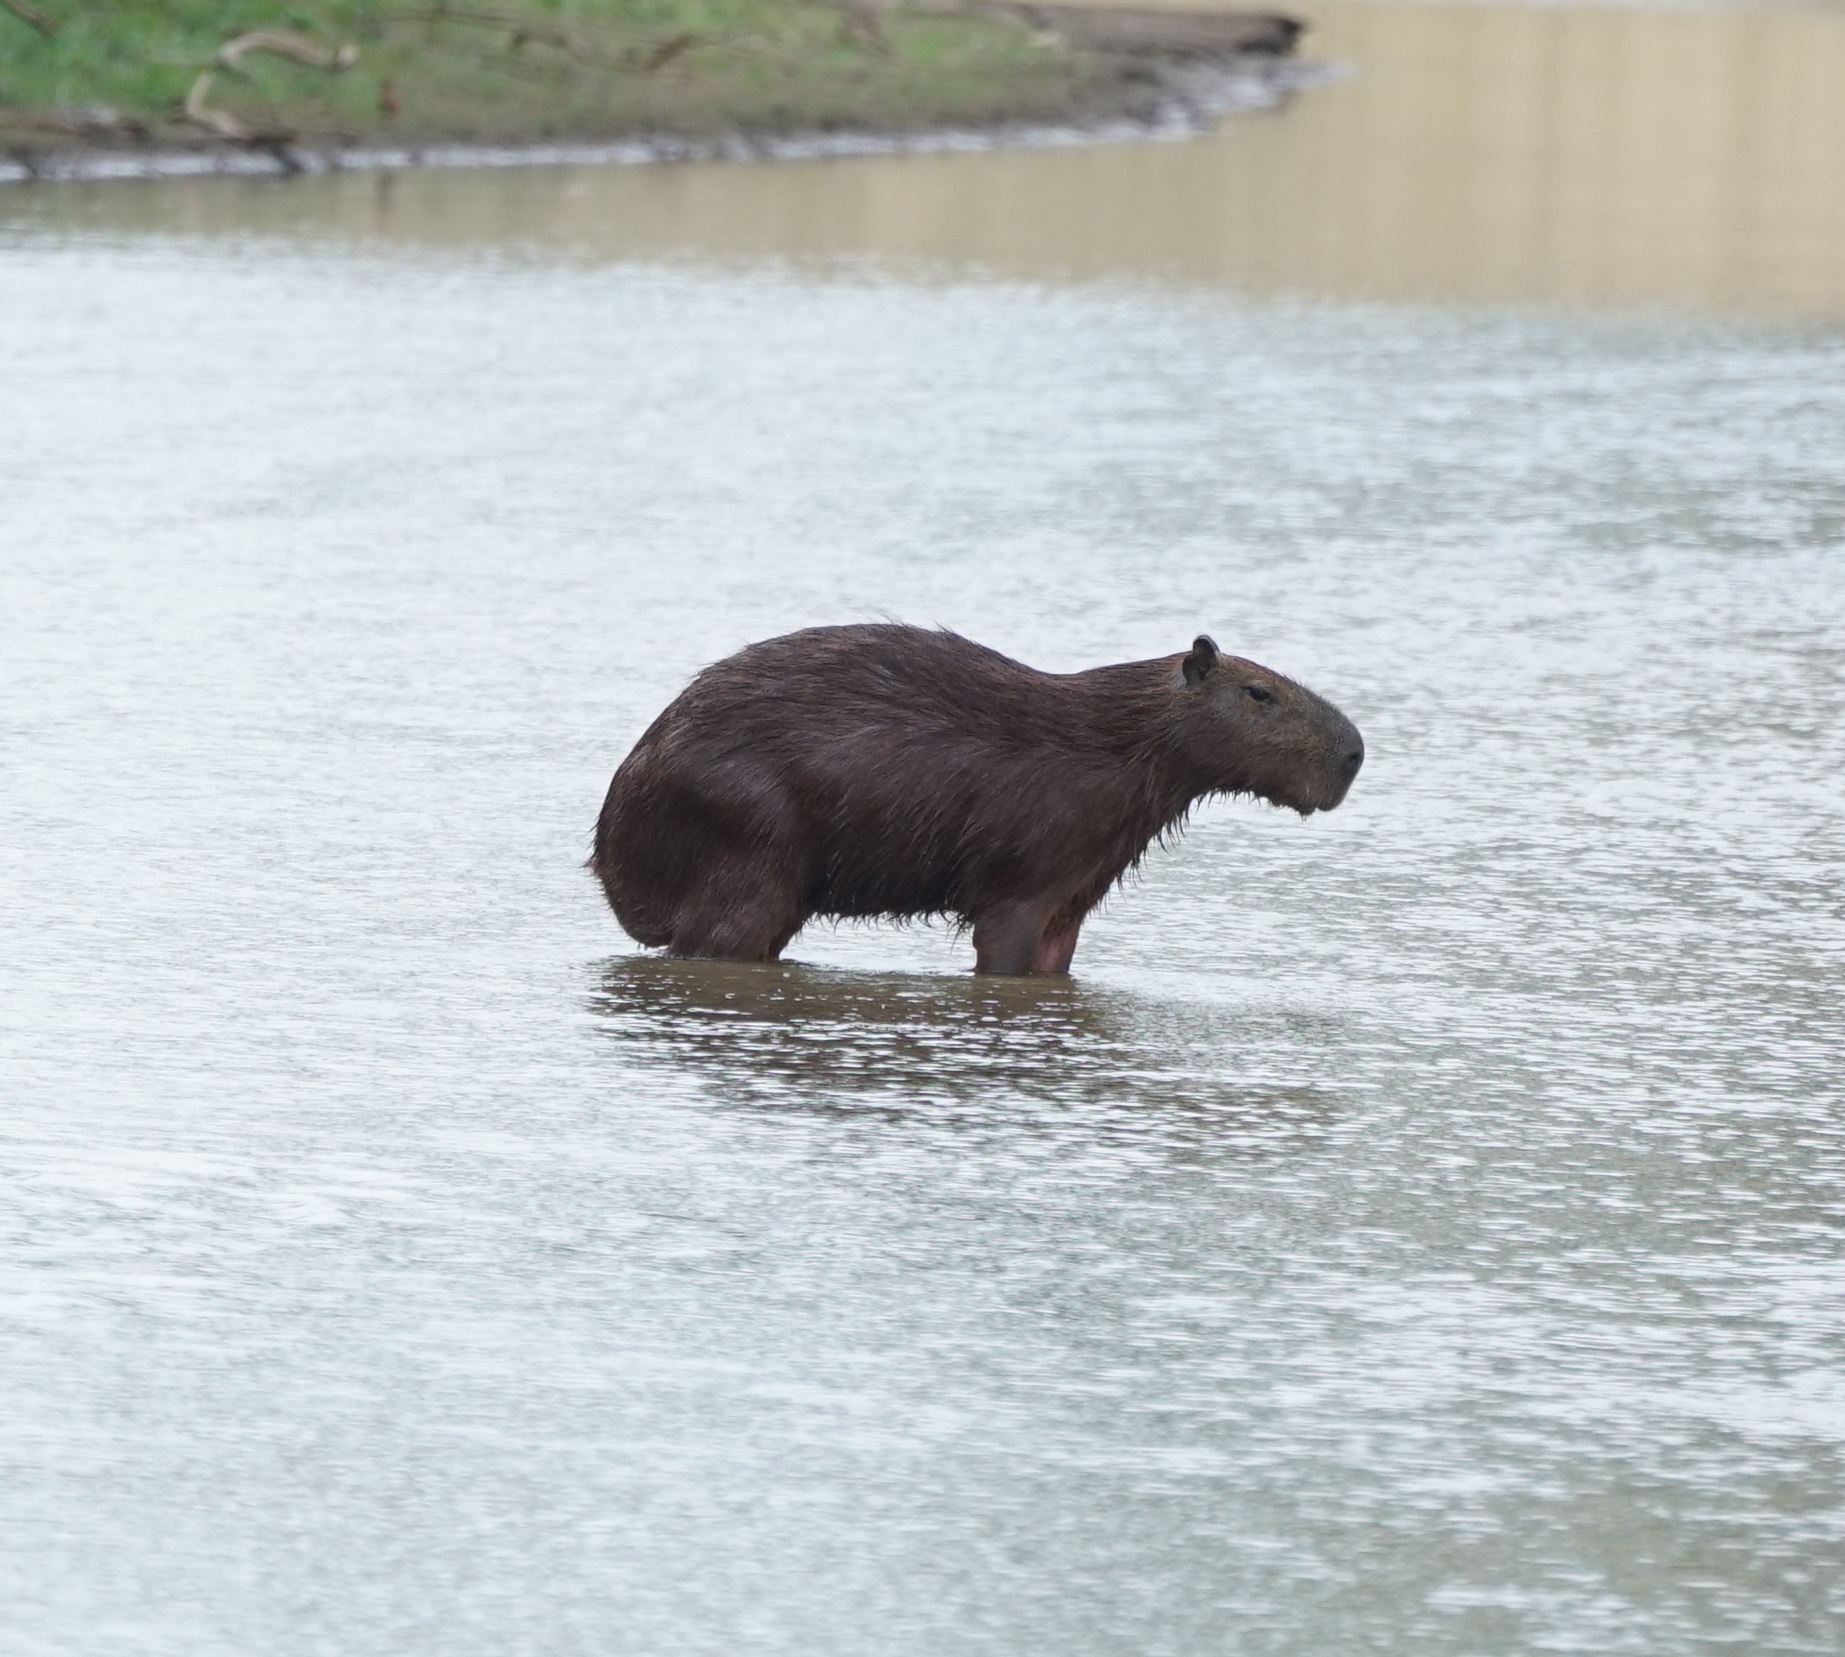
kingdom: Animalia
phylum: Chordata
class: Mammalia
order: Rodentia
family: Caviidae
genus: Hydrochoerus
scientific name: Hydrochoerus hydrochaeris
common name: Capybara
